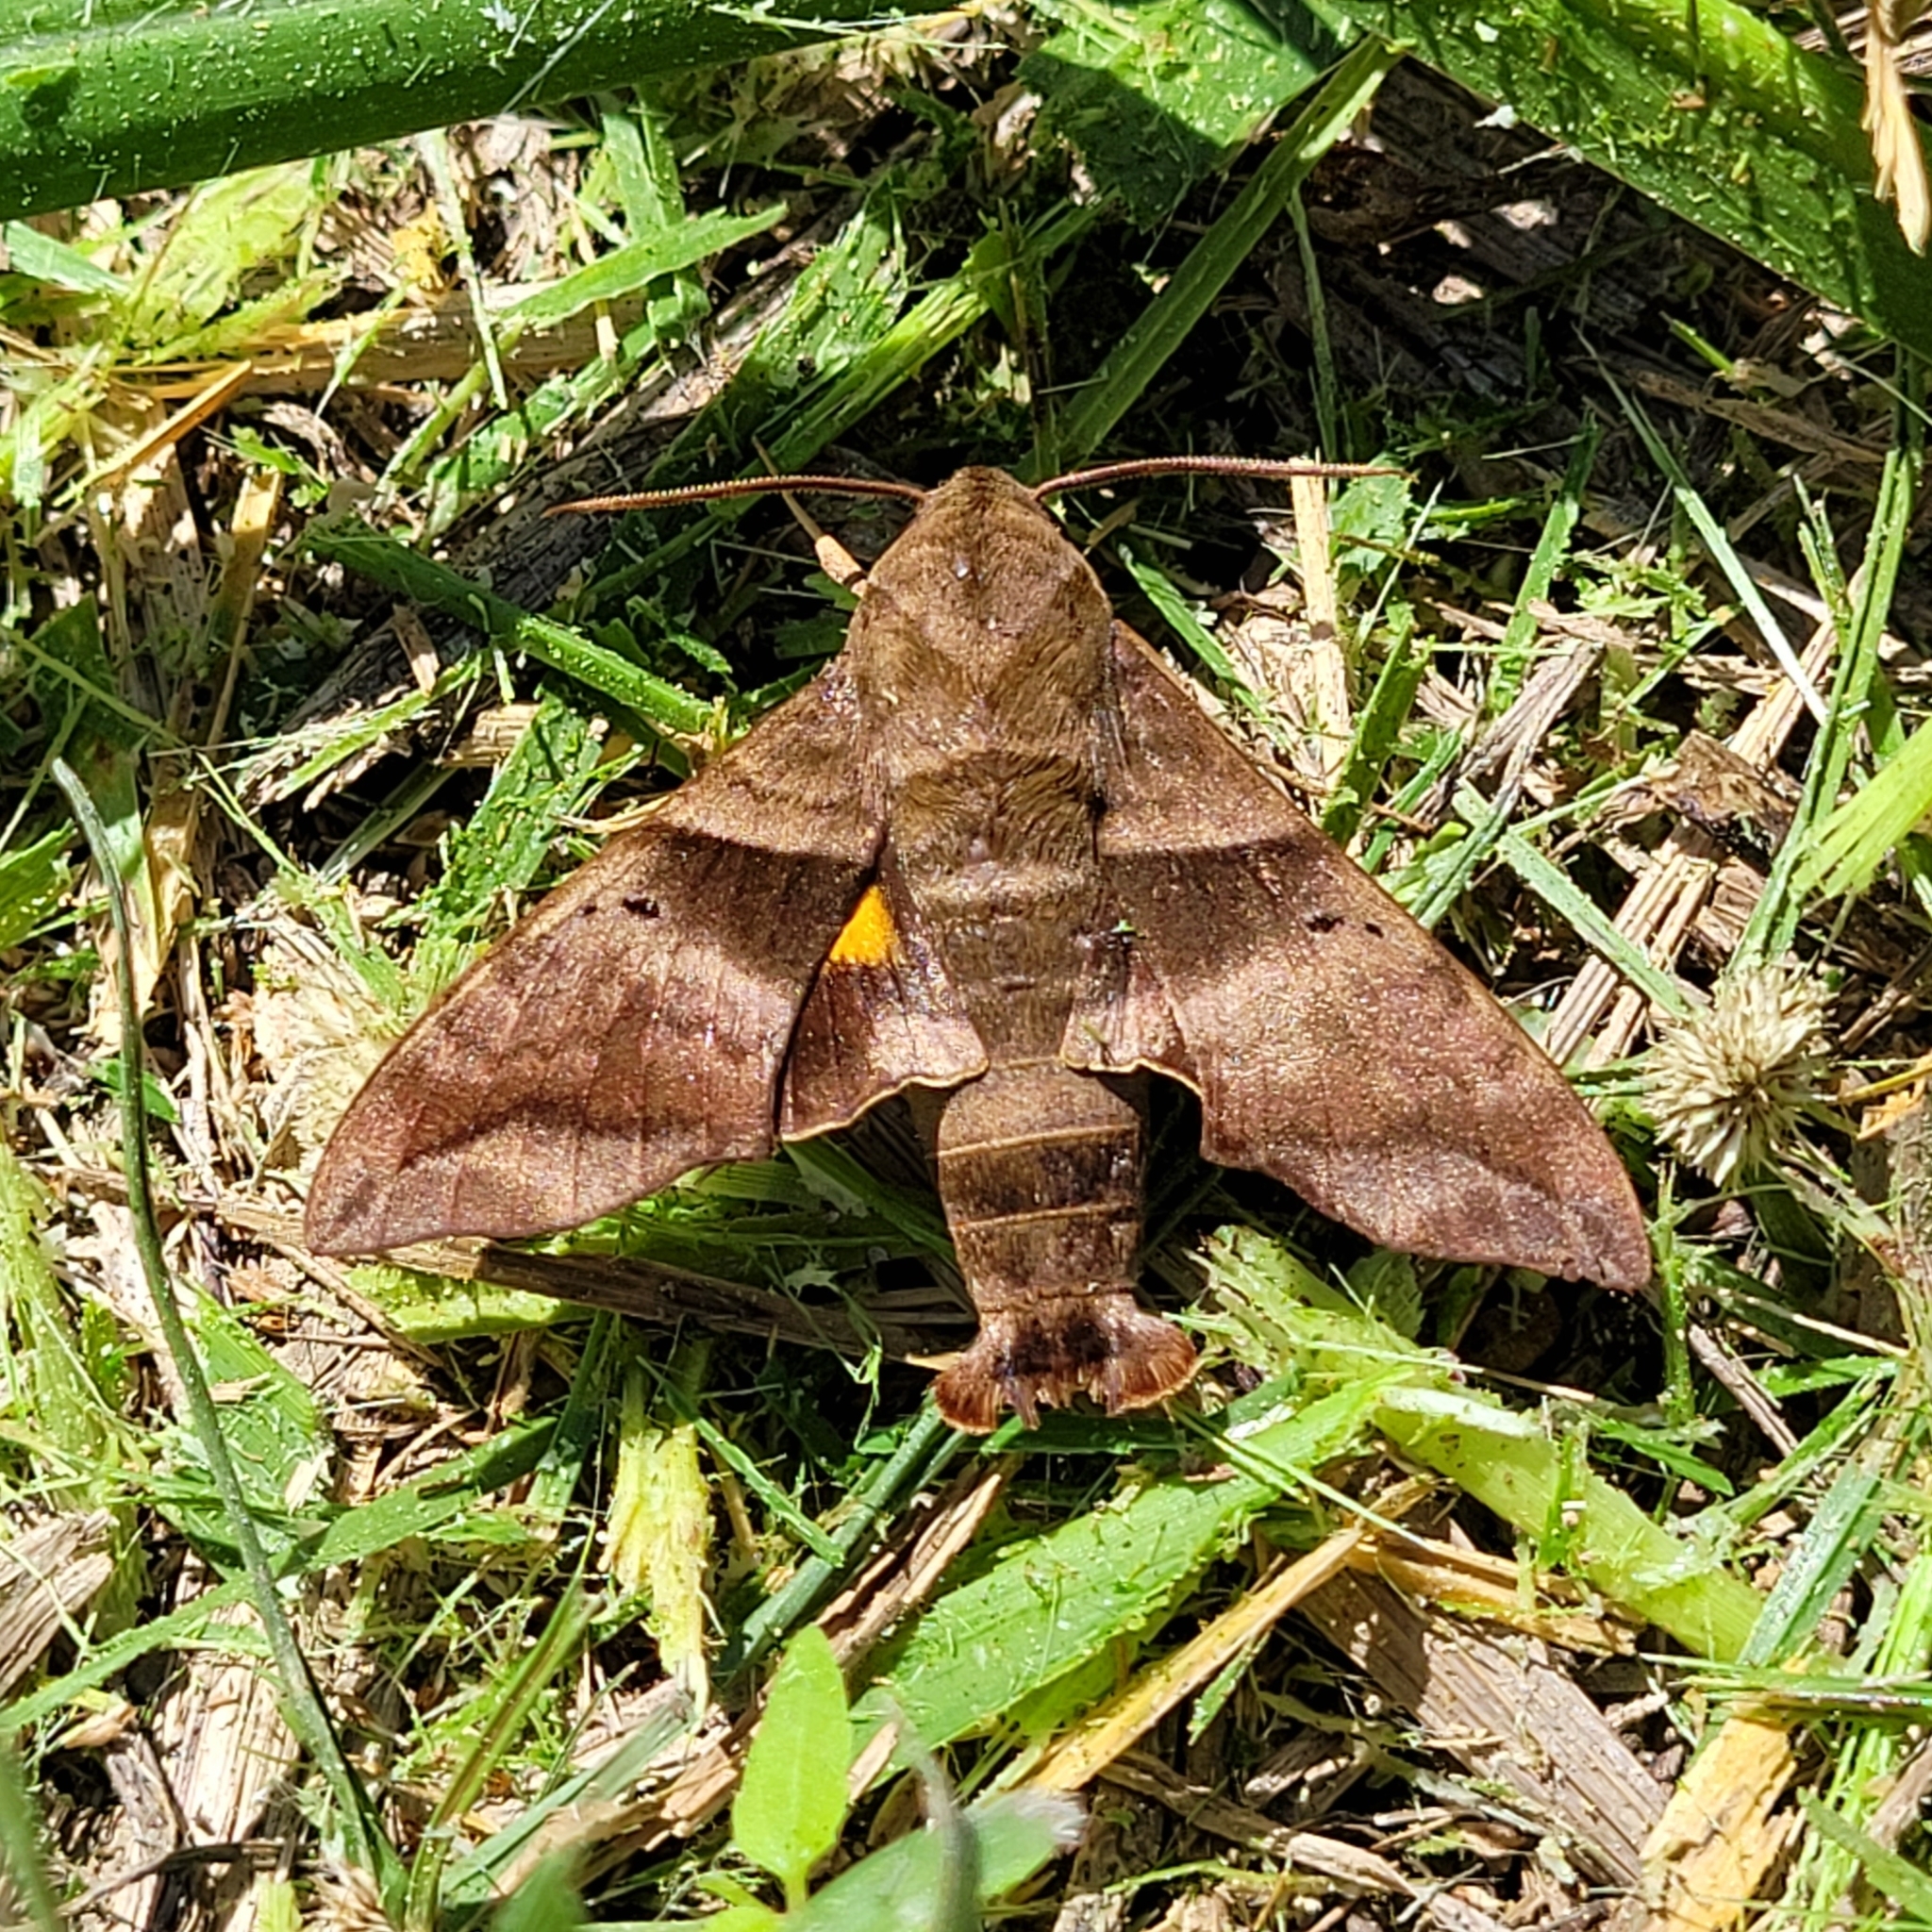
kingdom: Animalia
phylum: Arthropoda
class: Insecta
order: Lepidoptera
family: Sphingidae
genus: Perigonia
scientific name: Perigonia lusca
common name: Half-blind sphinx
